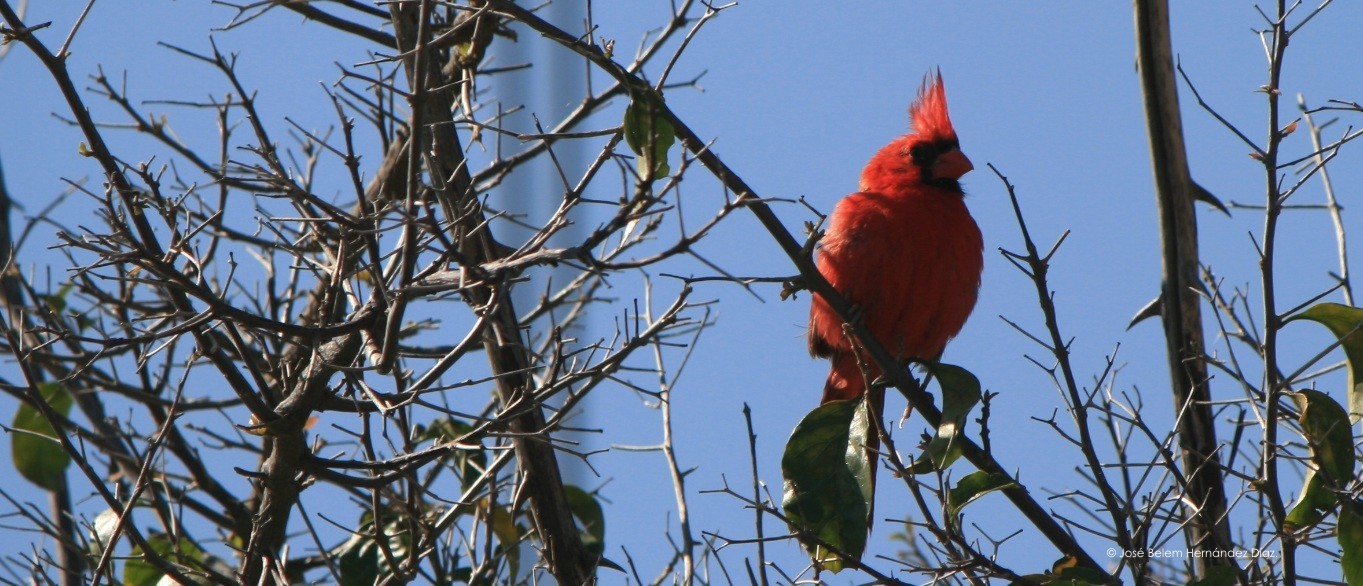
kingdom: Animalia
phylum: Chordata
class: Aves
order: Passeriformes
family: Cardinalidae
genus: Cardinalis
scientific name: Cardinalis cardinalis
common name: Northern cardinal
